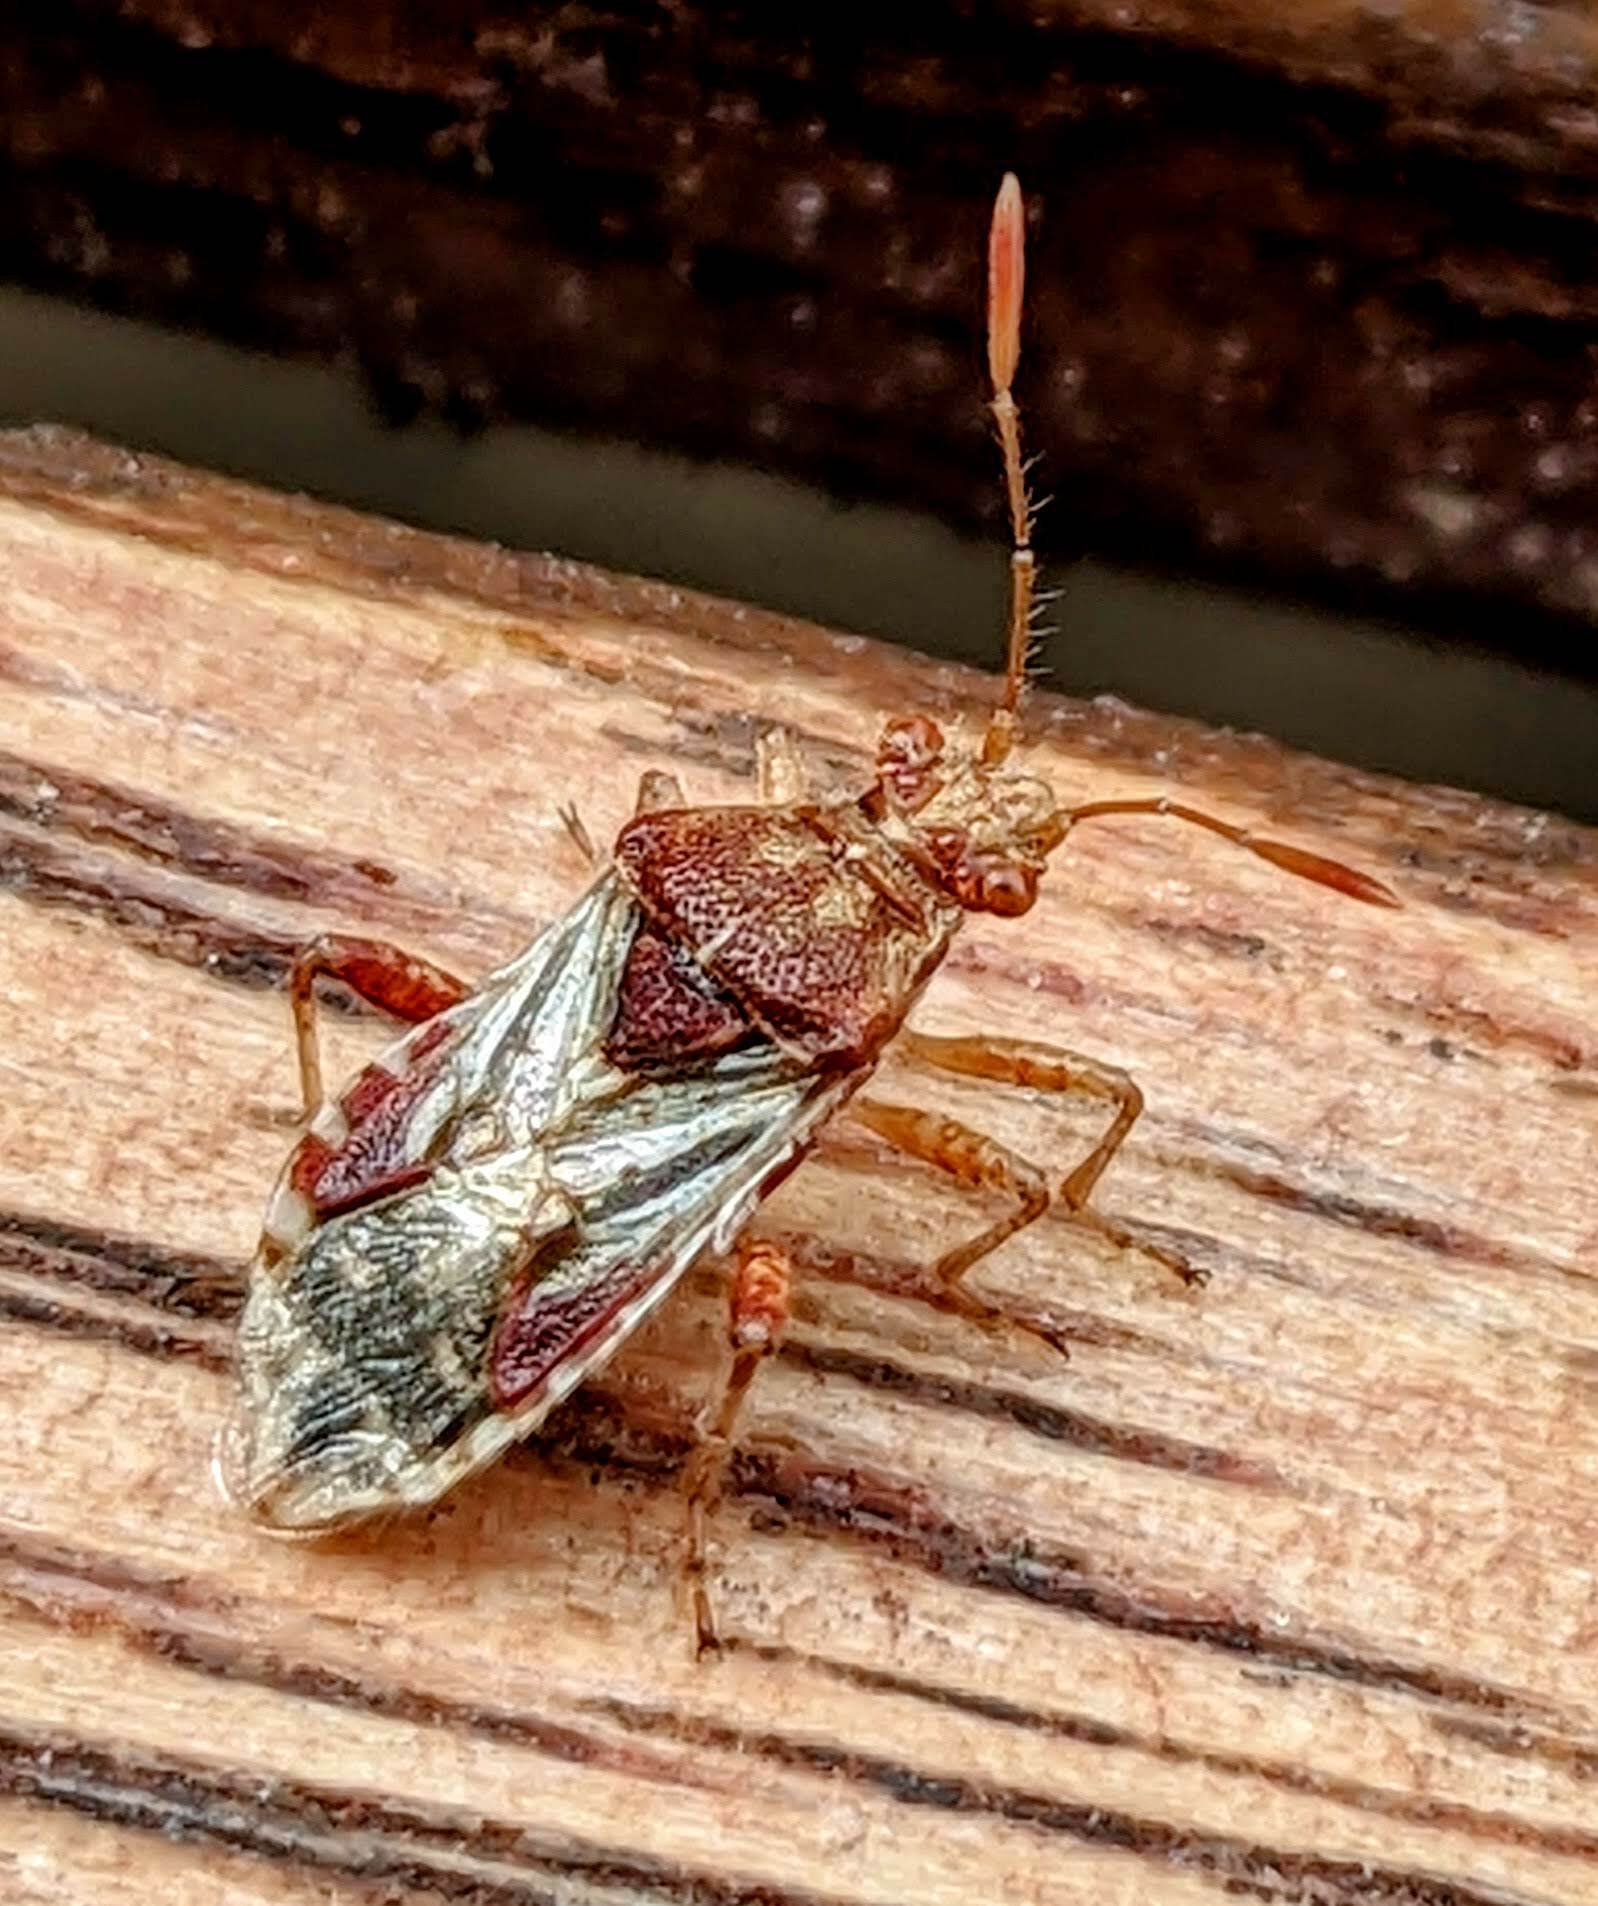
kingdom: Animalia
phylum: Arthropoda
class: Insecta
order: Hemiptera
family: Rhopalidae
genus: Rhopalus
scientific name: Rhopalus subrufus
